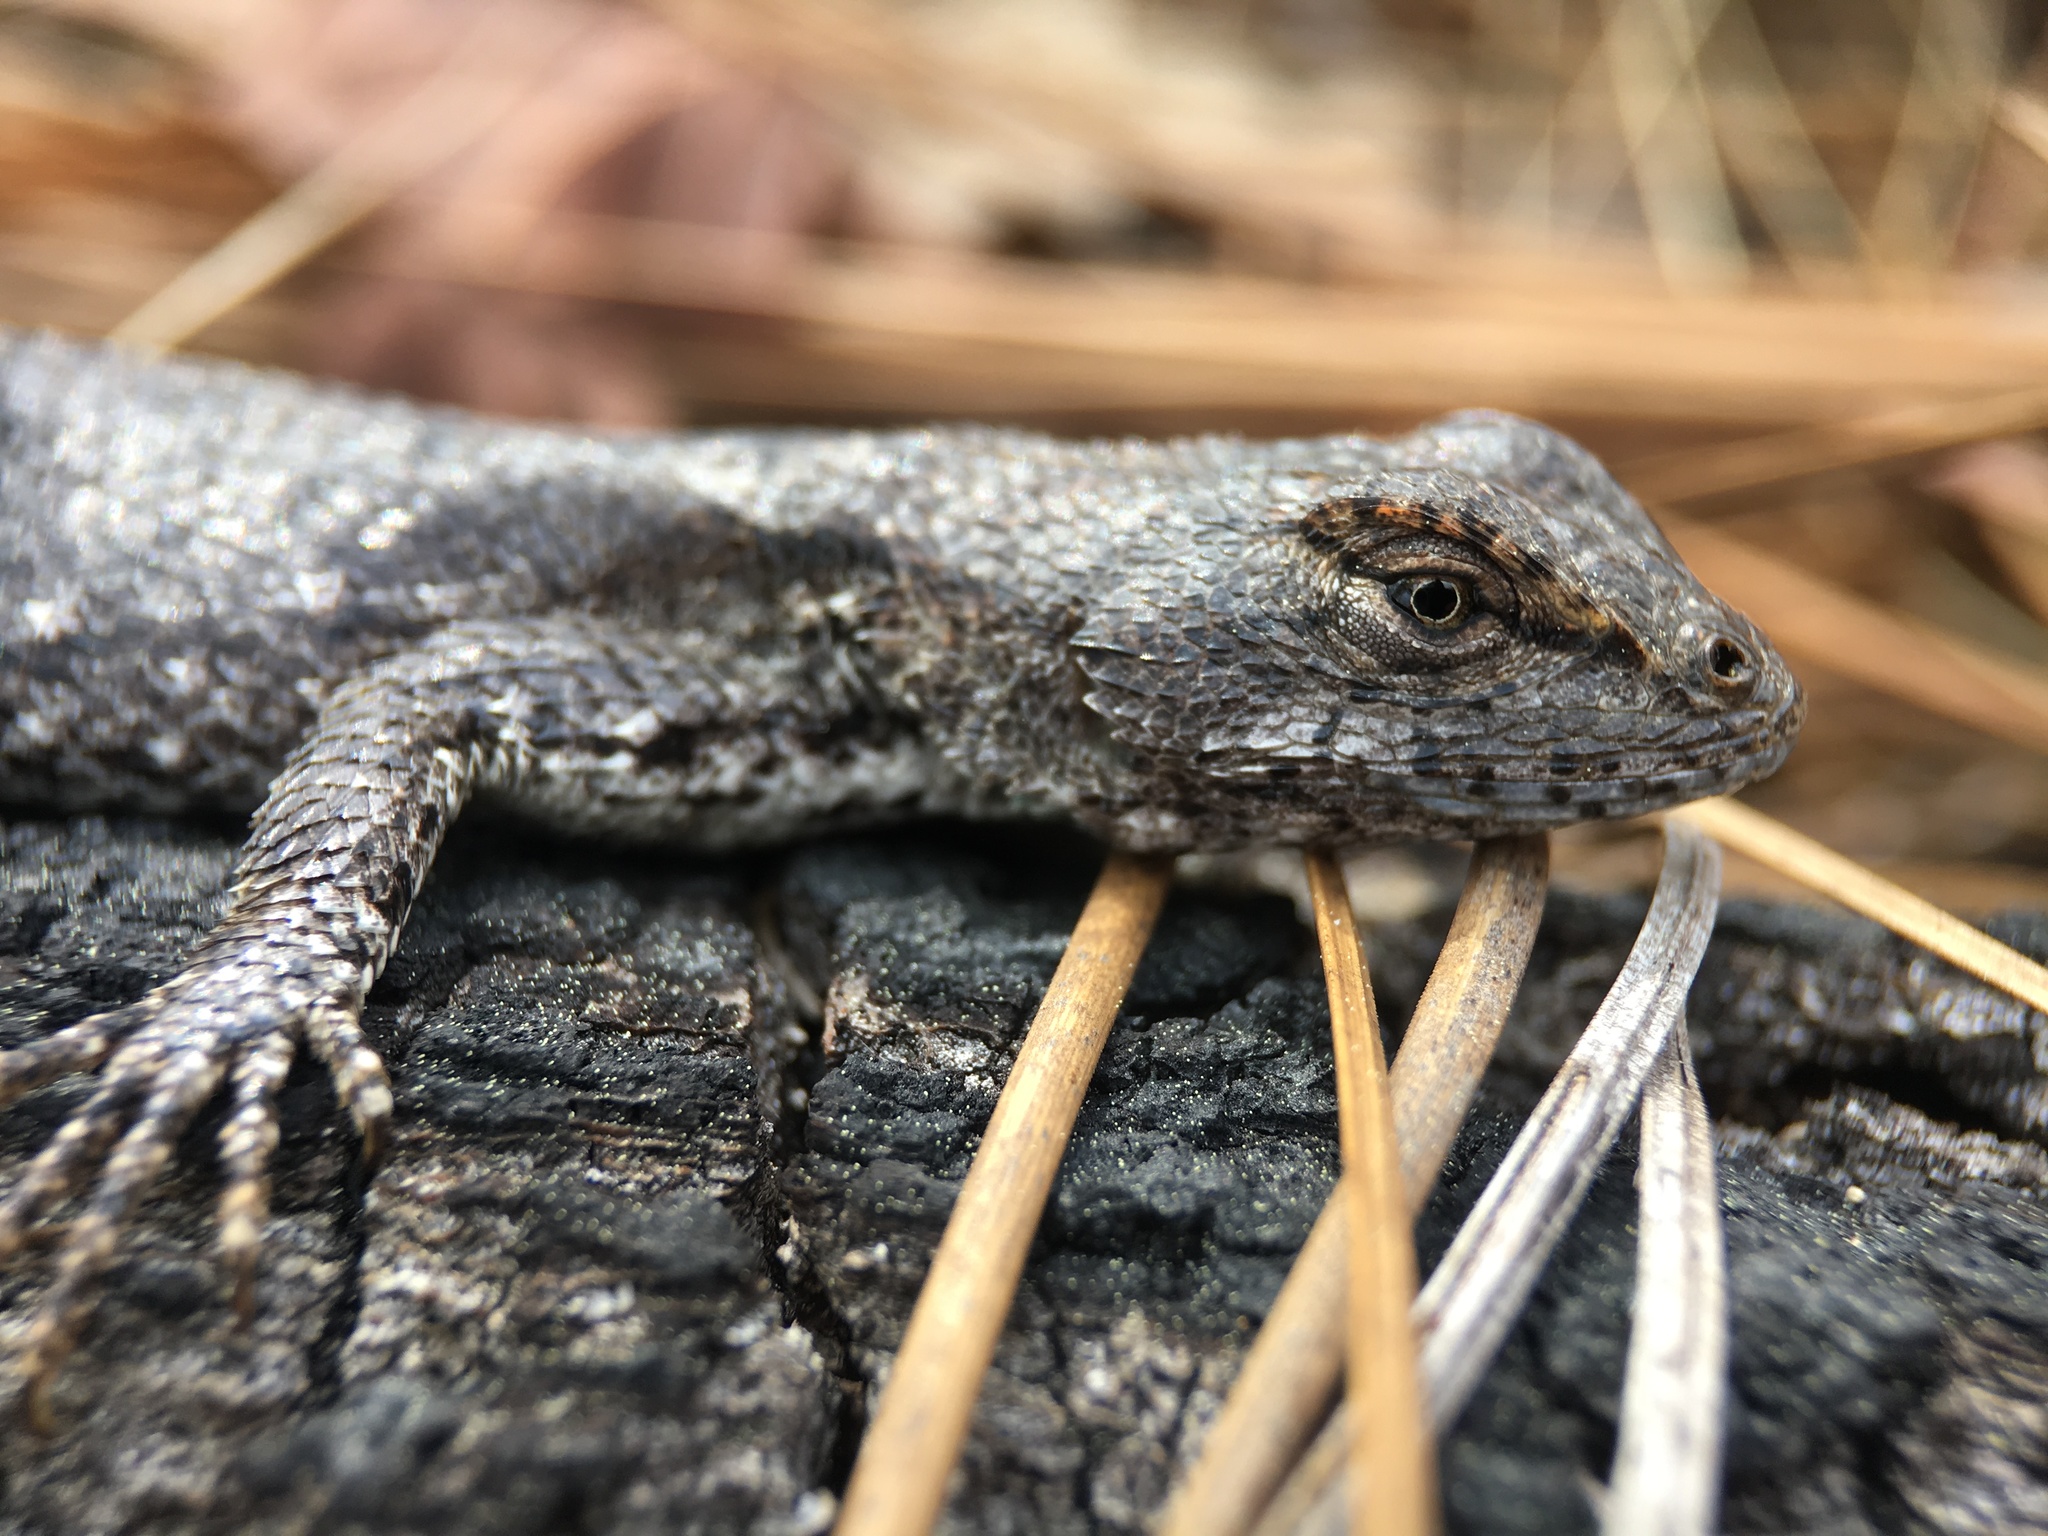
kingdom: Animalia
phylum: Chordata
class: Squamata
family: Phrynosomatidae
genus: Sceloporus
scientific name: Sceloporus undulatus
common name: Eastern fence lizard
